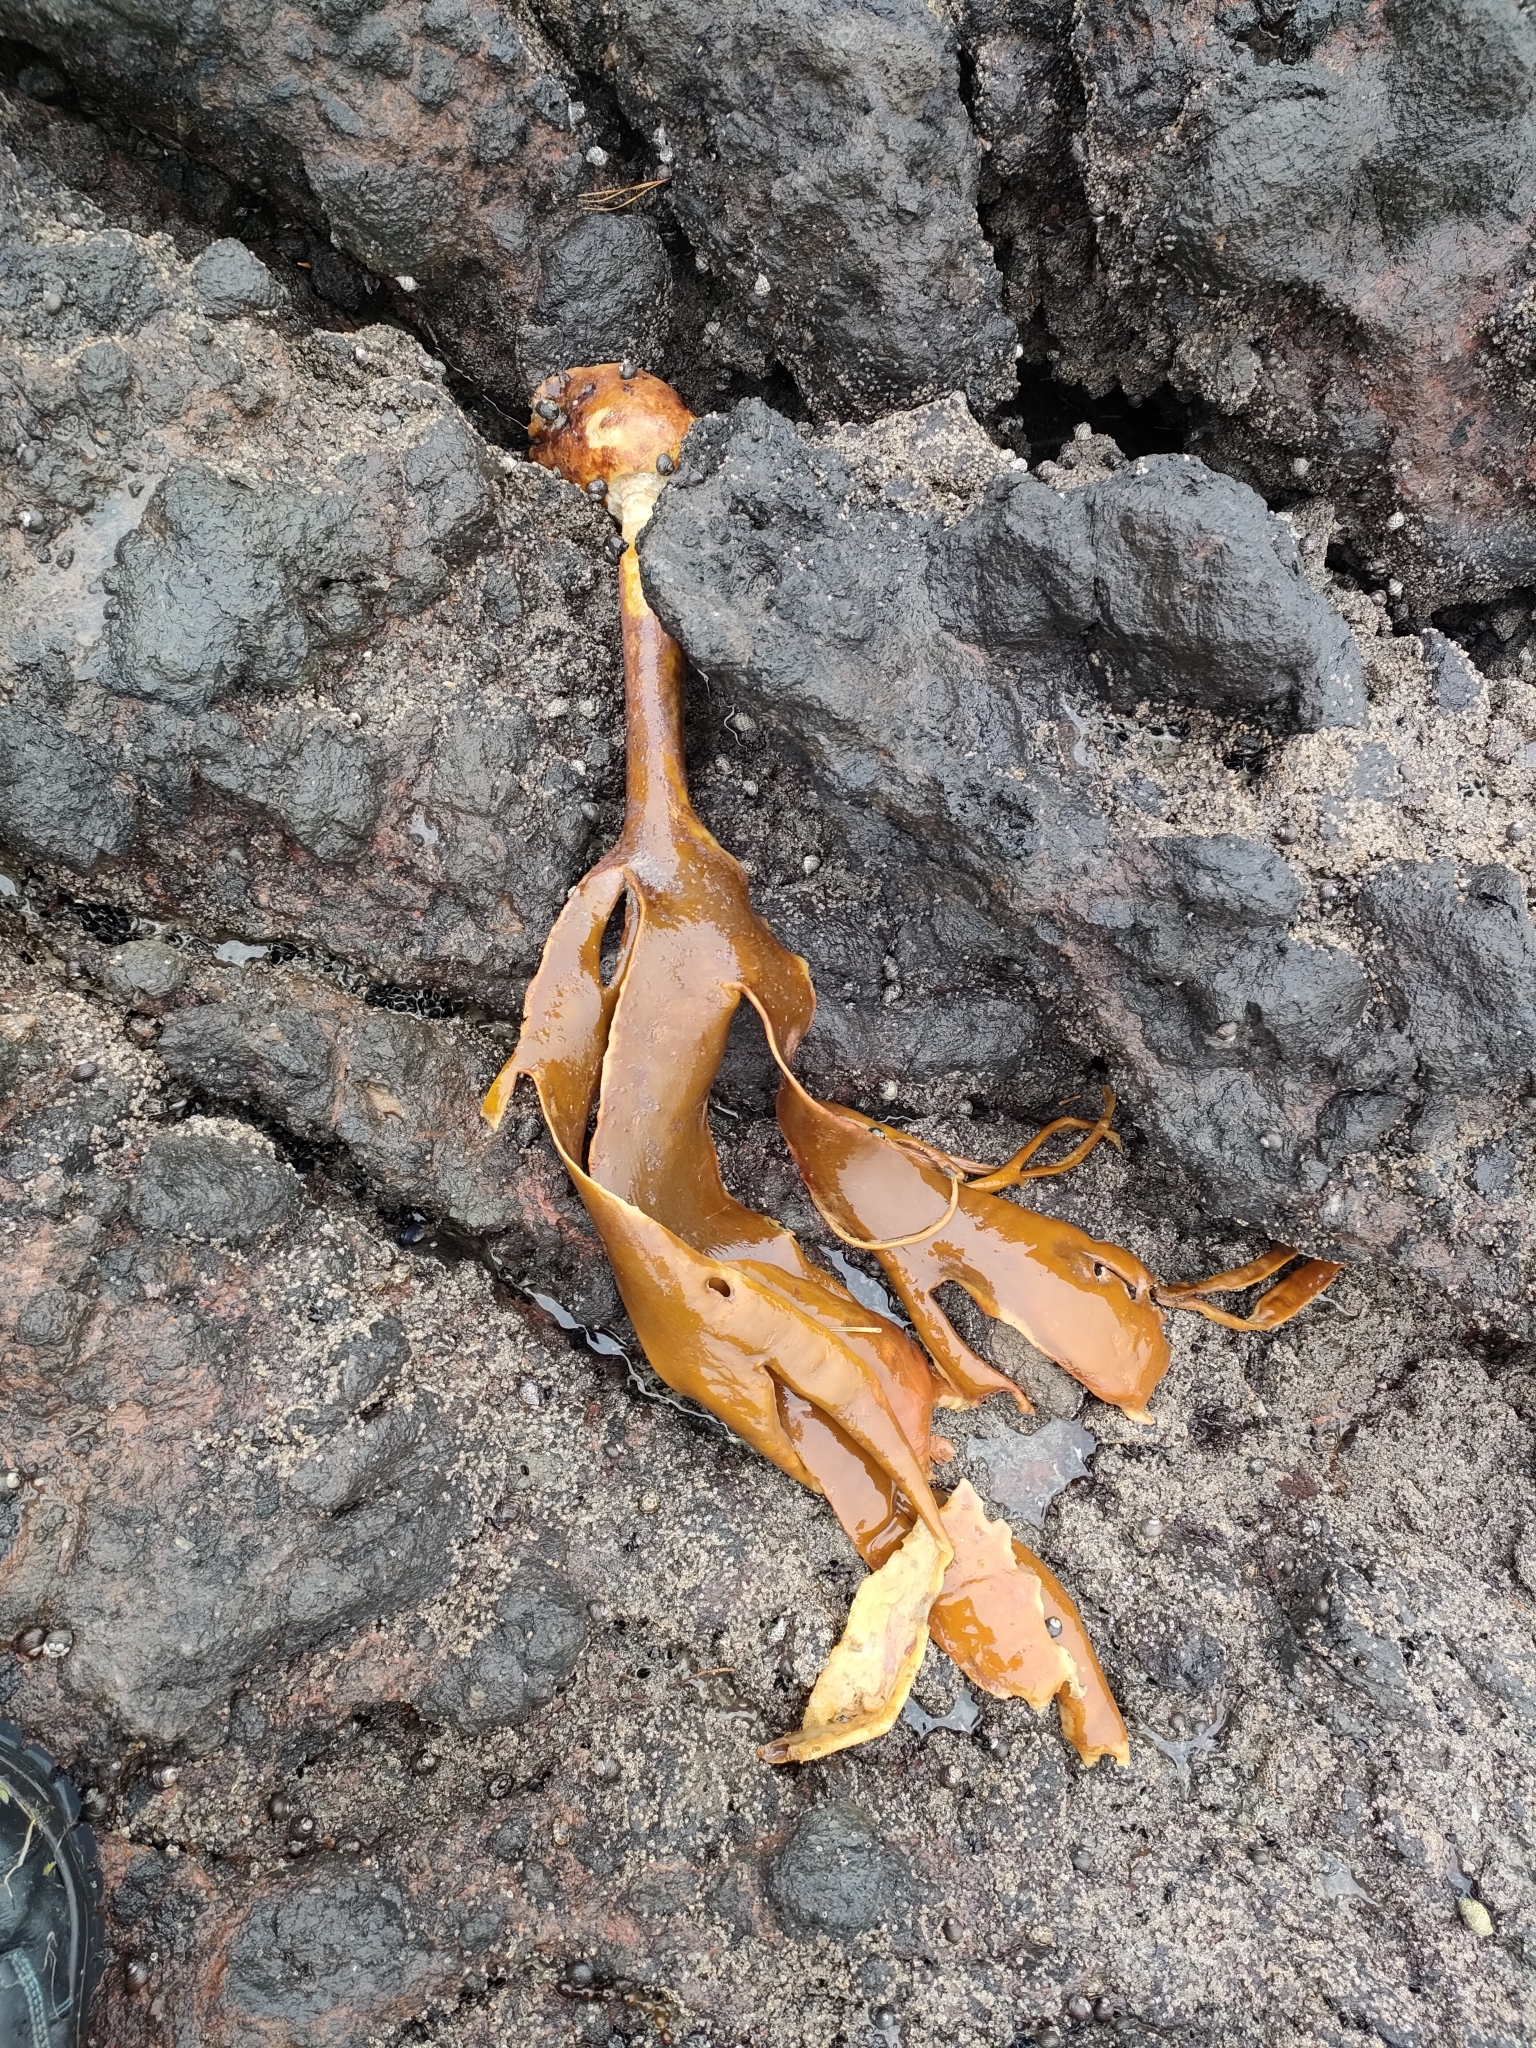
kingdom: Chromista
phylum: Ochrophyta
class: Phaeophyceae
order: Fucales
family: Durvillaeaceae
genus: Durvillaea
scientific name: Durvillaea antarctica
